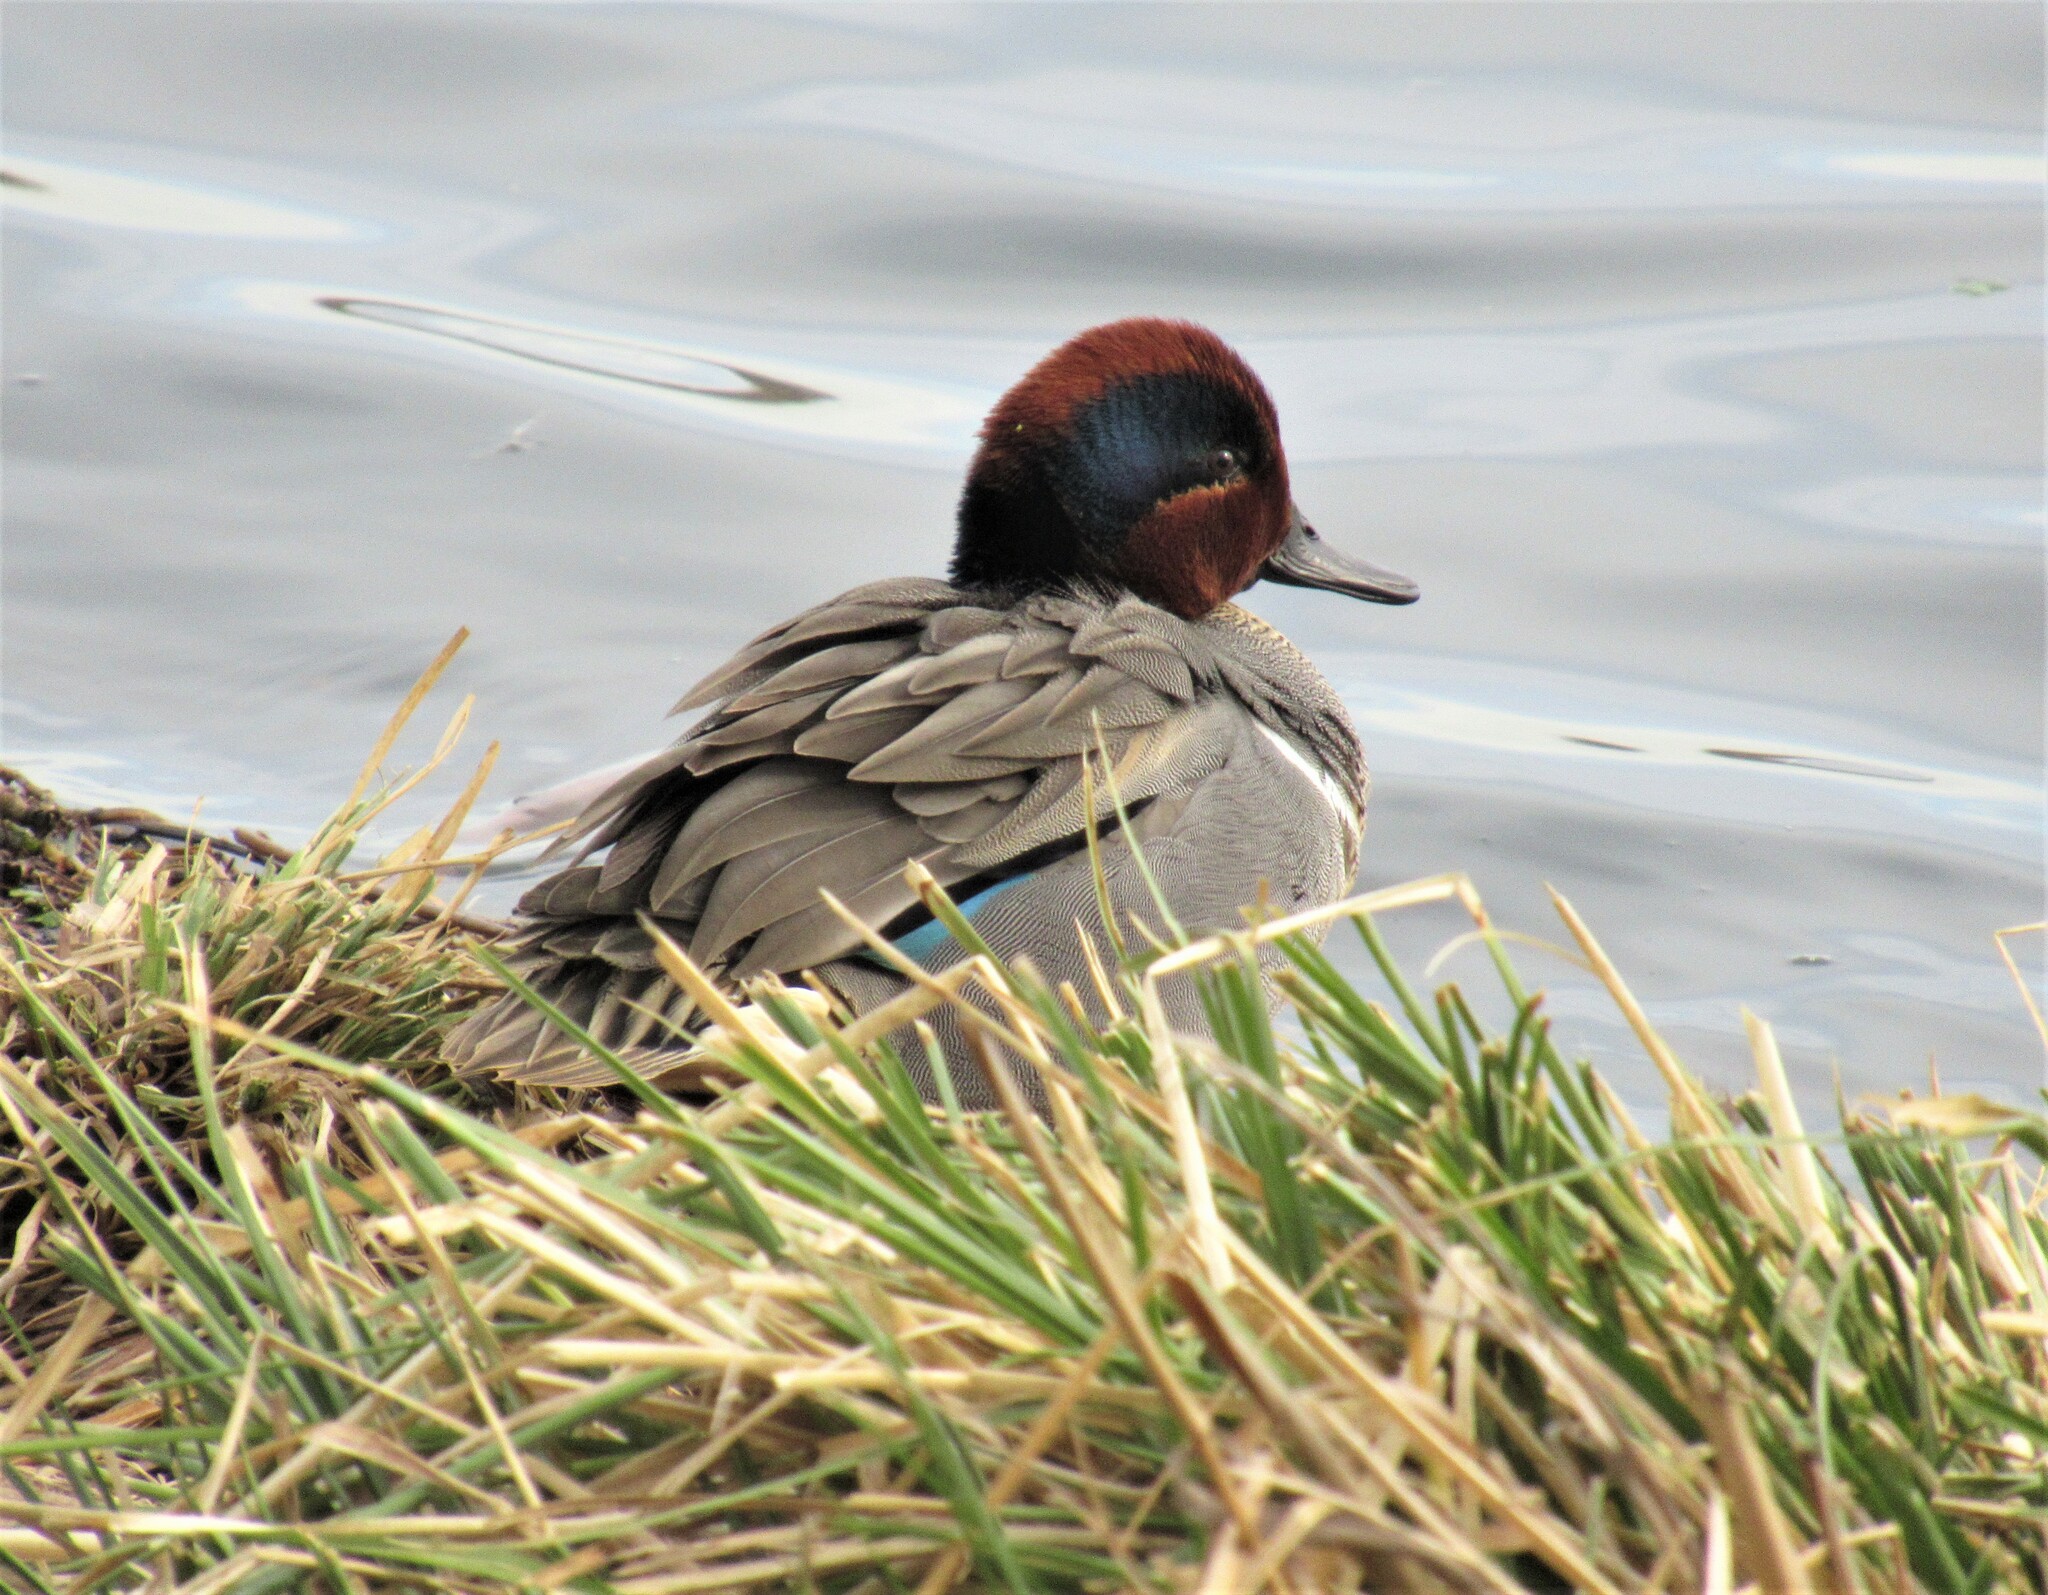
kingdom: Animalia
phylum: Chordata
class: Aves
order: Anseriformes
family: Anatidae
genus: Anas
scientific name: Anas crecca
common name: Eurasian teal
